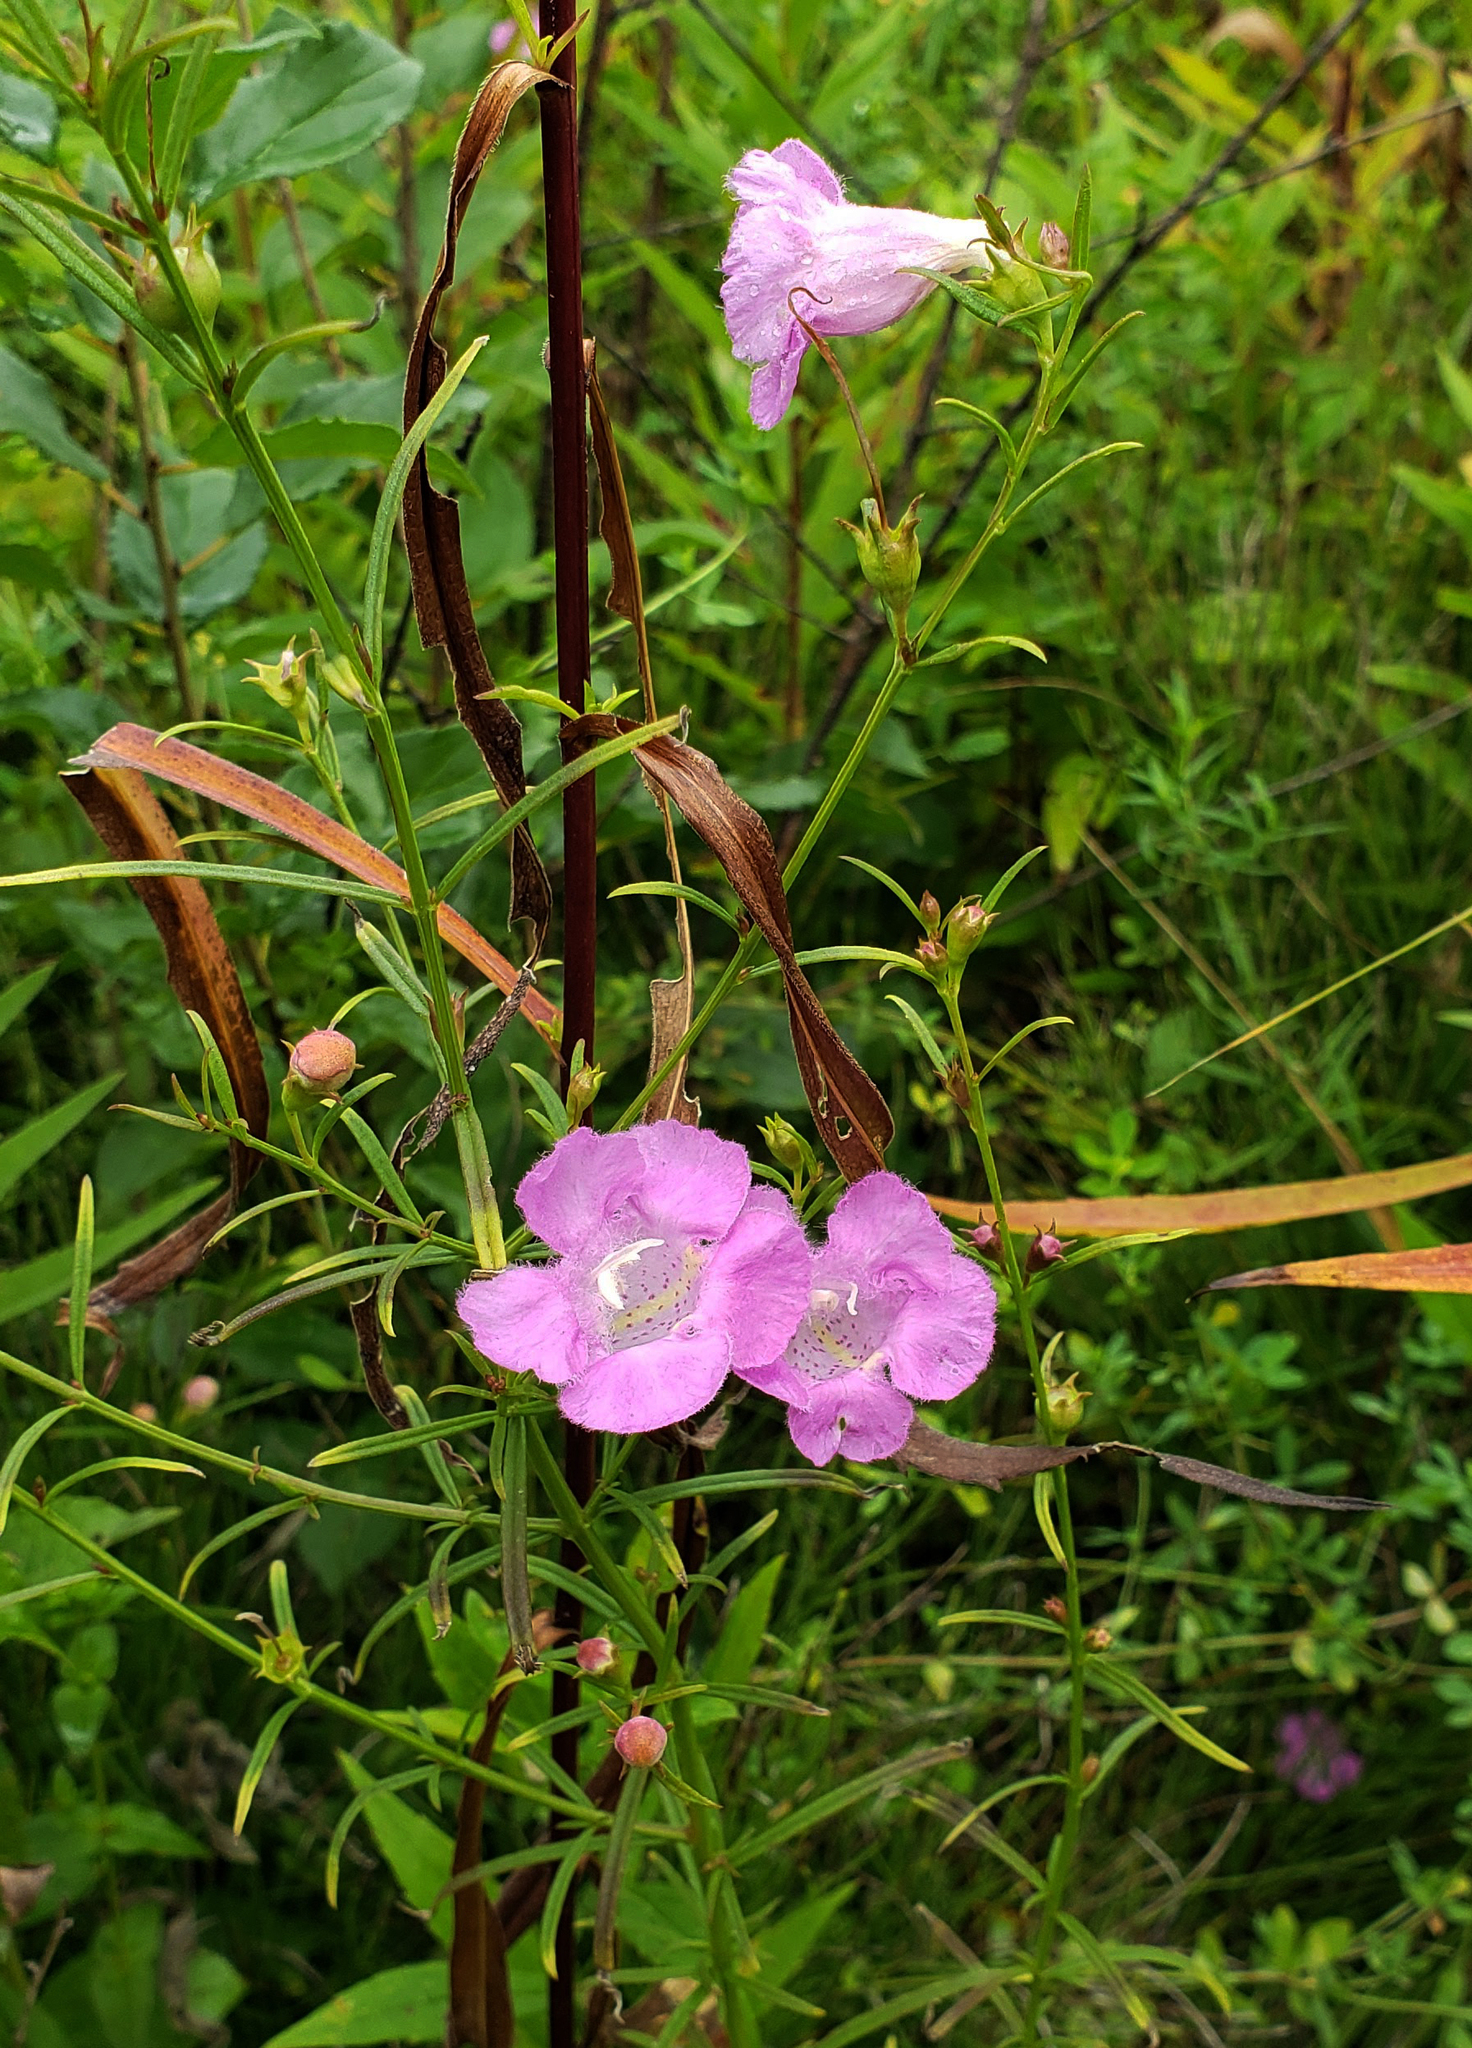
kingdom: Plantae
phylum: Tracheophyta
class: Magnoliopsida
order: Lamiales
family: Orobanchaceae
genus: Agalinis
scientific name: Agalinis purpurea
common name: Purple false foxglove
